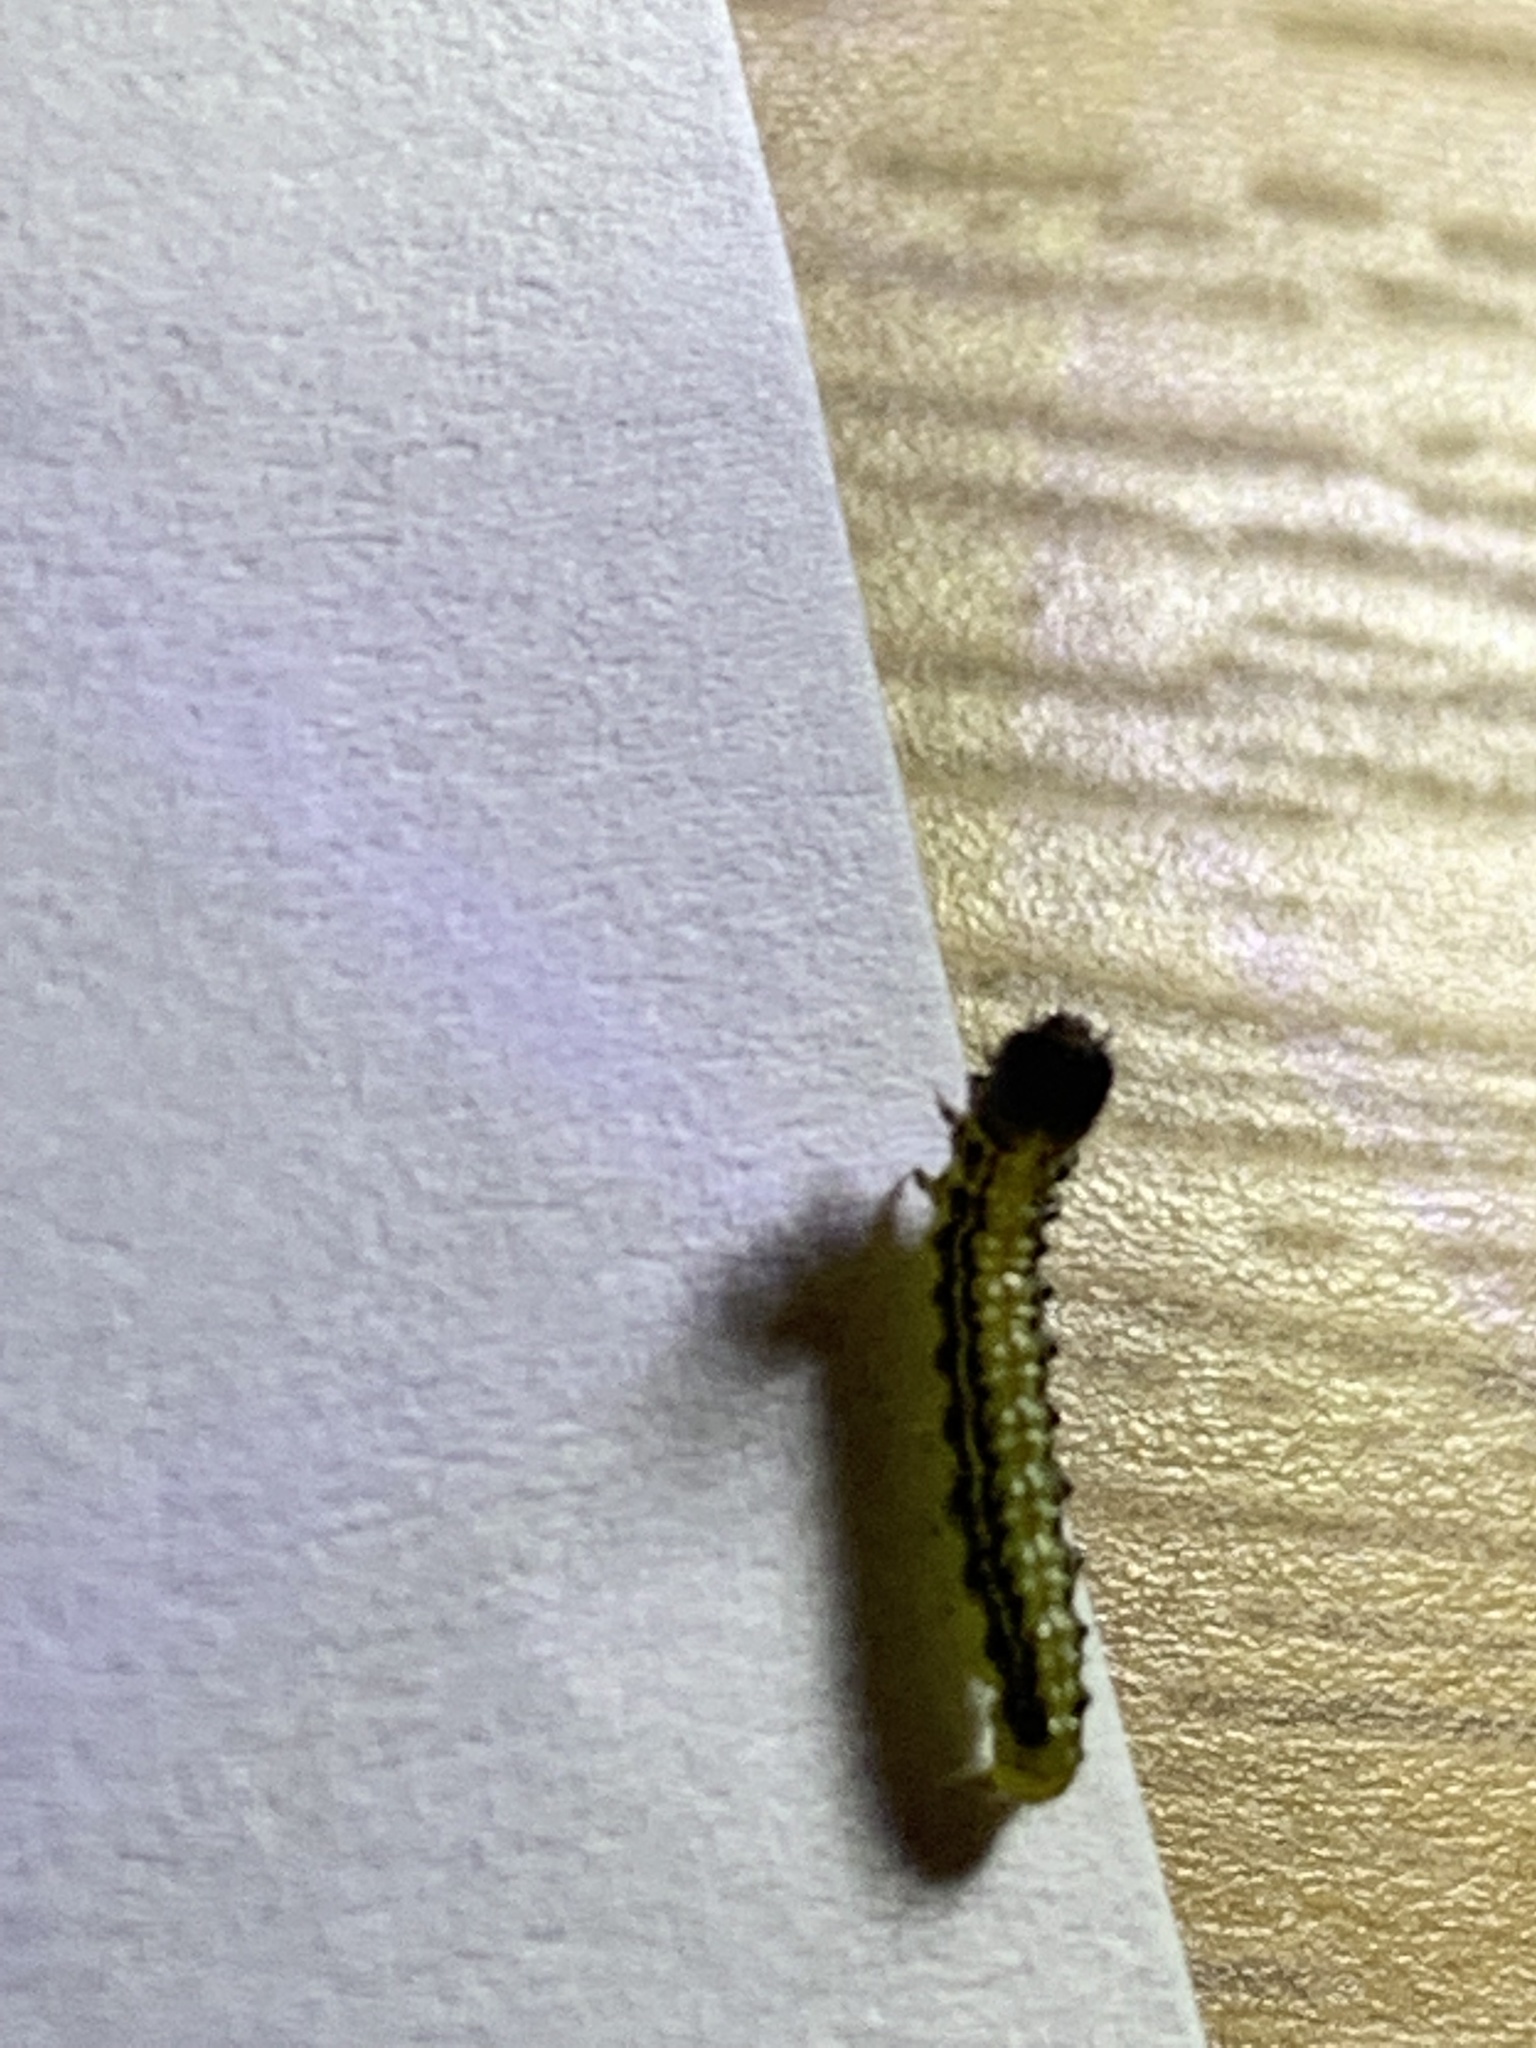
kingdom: Animalia
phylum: Arthropoda
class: Insecta
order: Lepidoptera
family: Crambidae
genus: Cydalima
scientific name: Cydalima perspectalis
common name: Box tree moth
